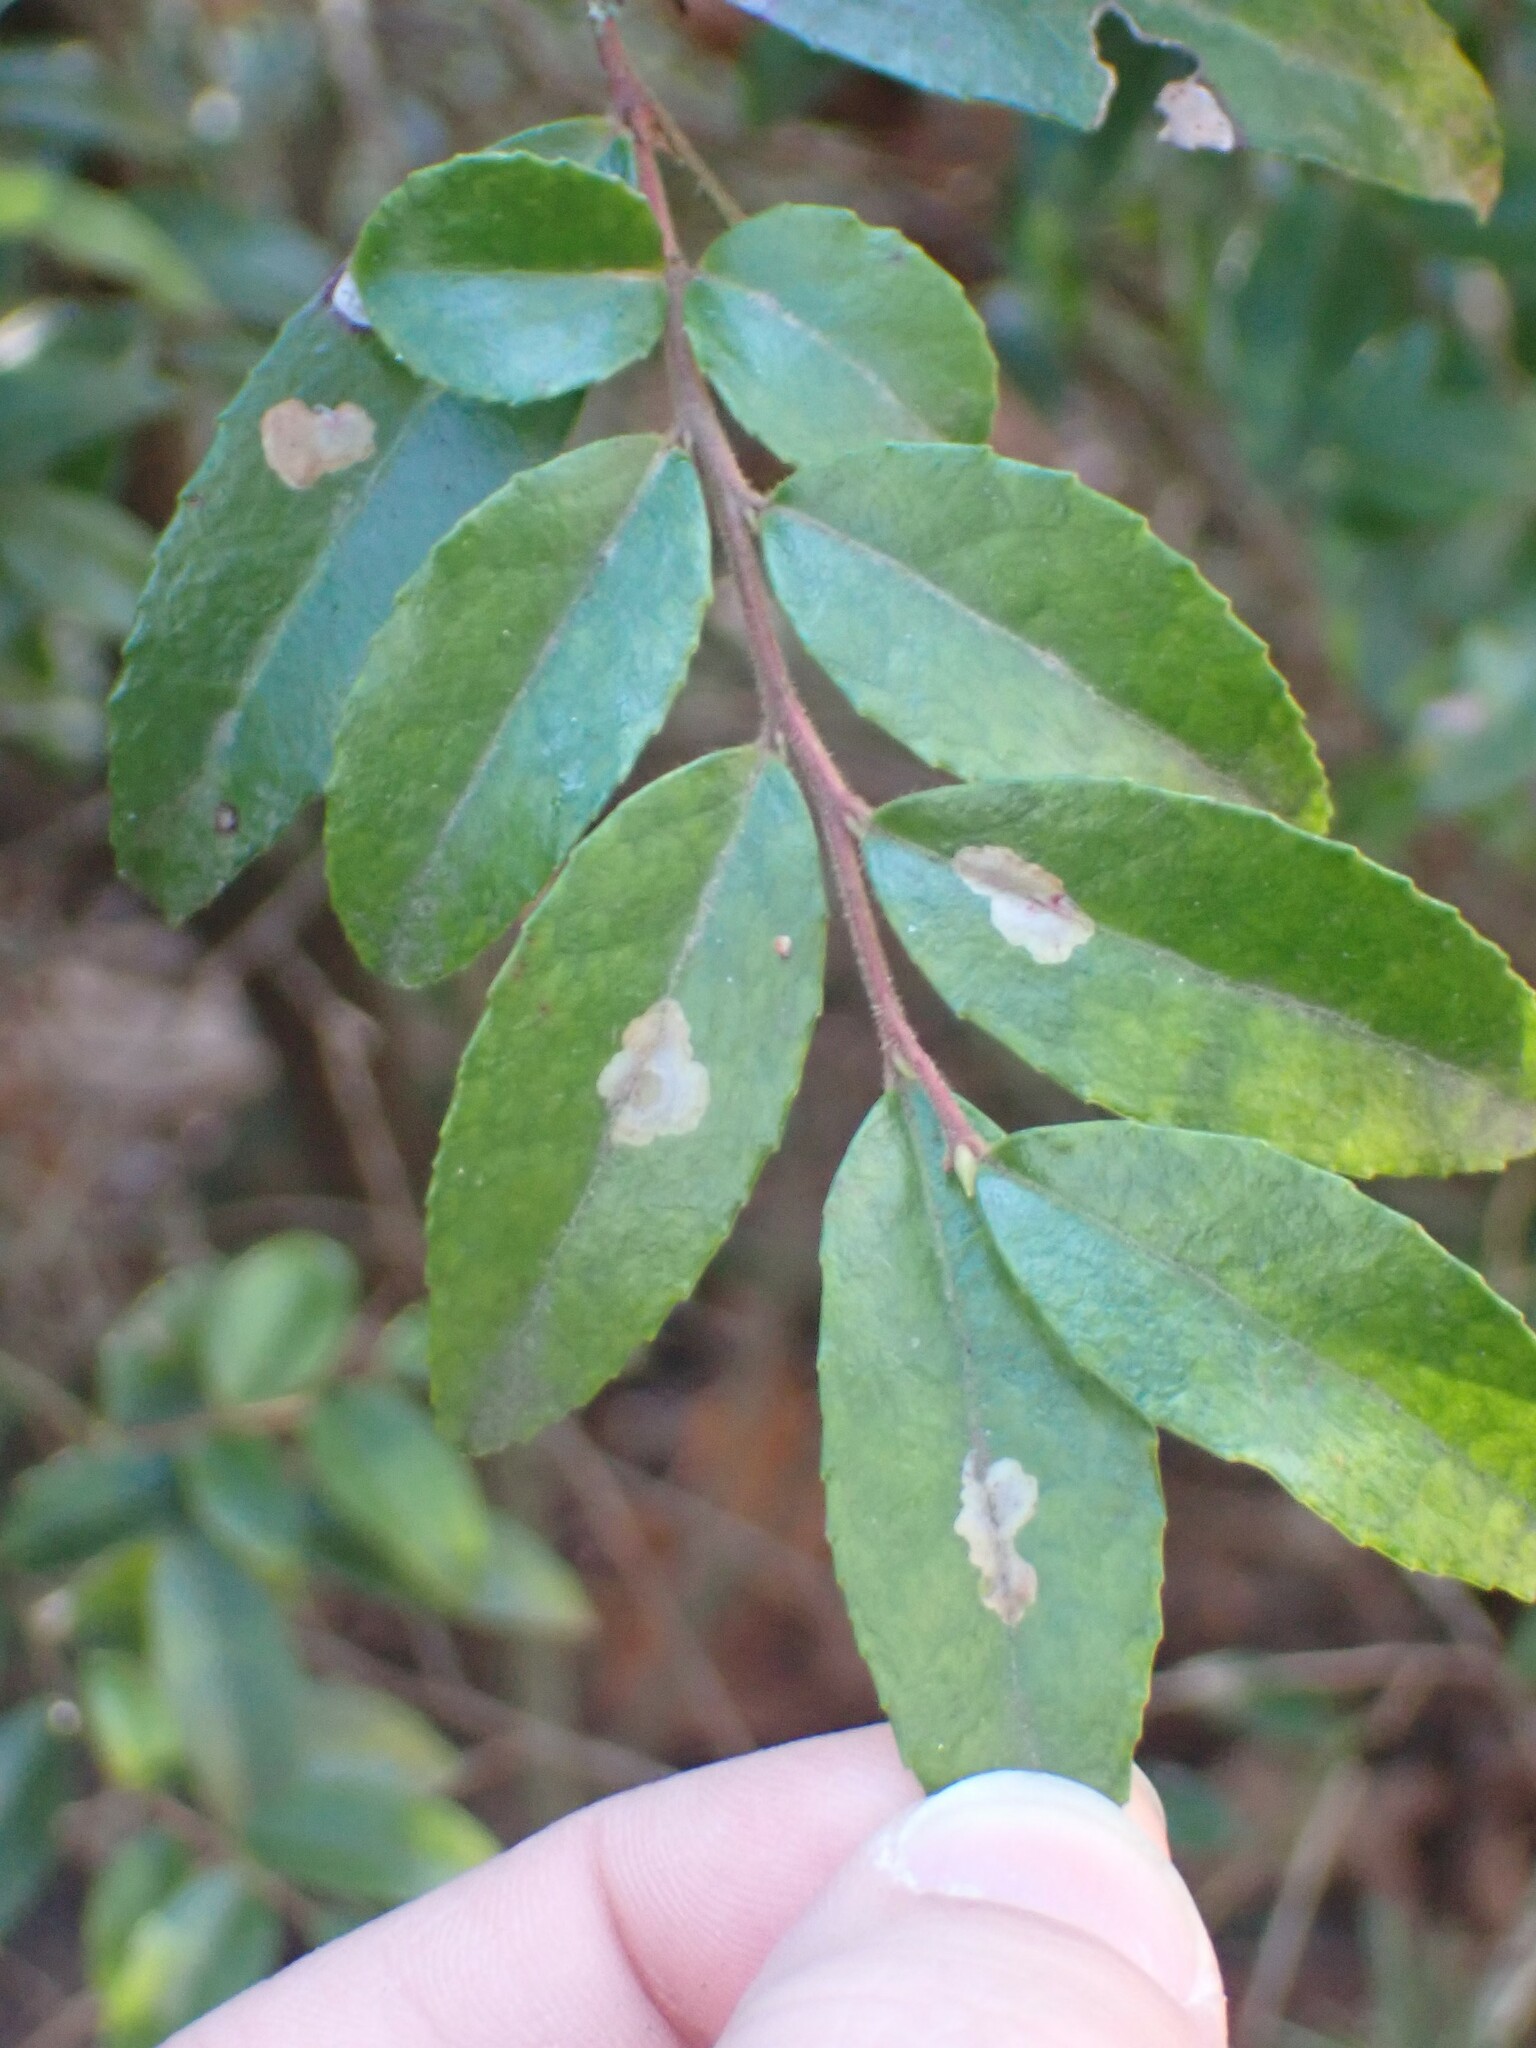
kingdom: Animalia
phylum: Arthropoda
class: Insecta
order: Lepidoptera
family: Gracillariidae
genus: Cameraria
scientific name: Cameraria nemoris
